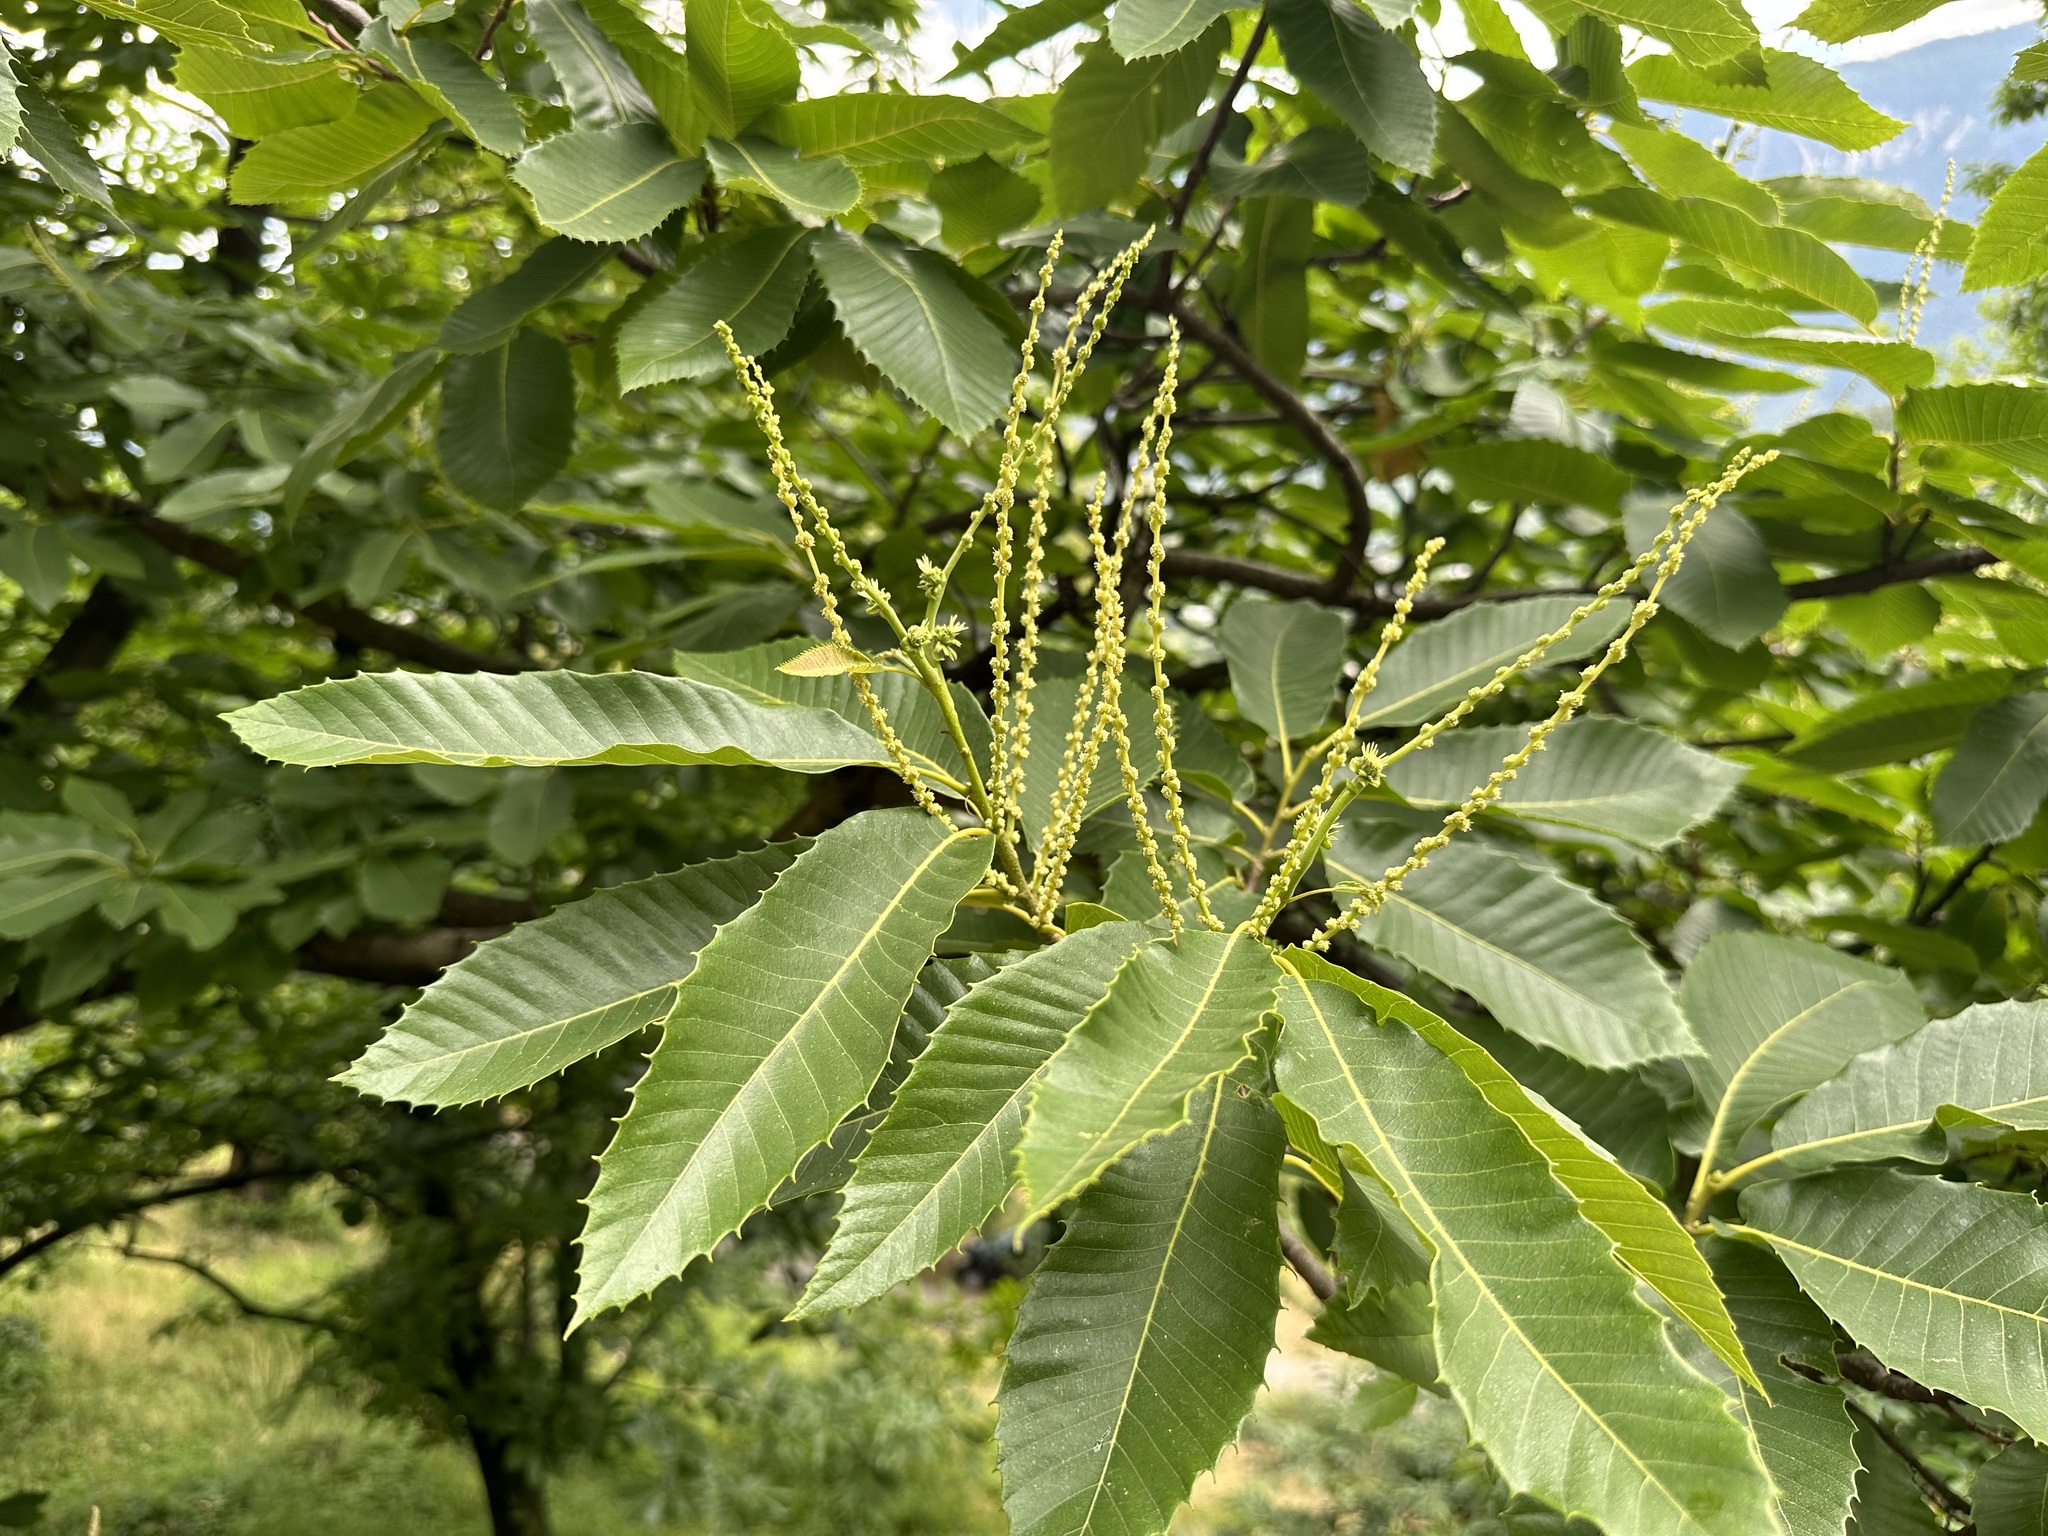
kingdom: Plantae
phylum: Tracheophyta
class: Magnoliopsida
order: Fagales
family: Fagaceae
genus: Castanea
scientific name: Castanea sativa
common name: Sweet chestnut
